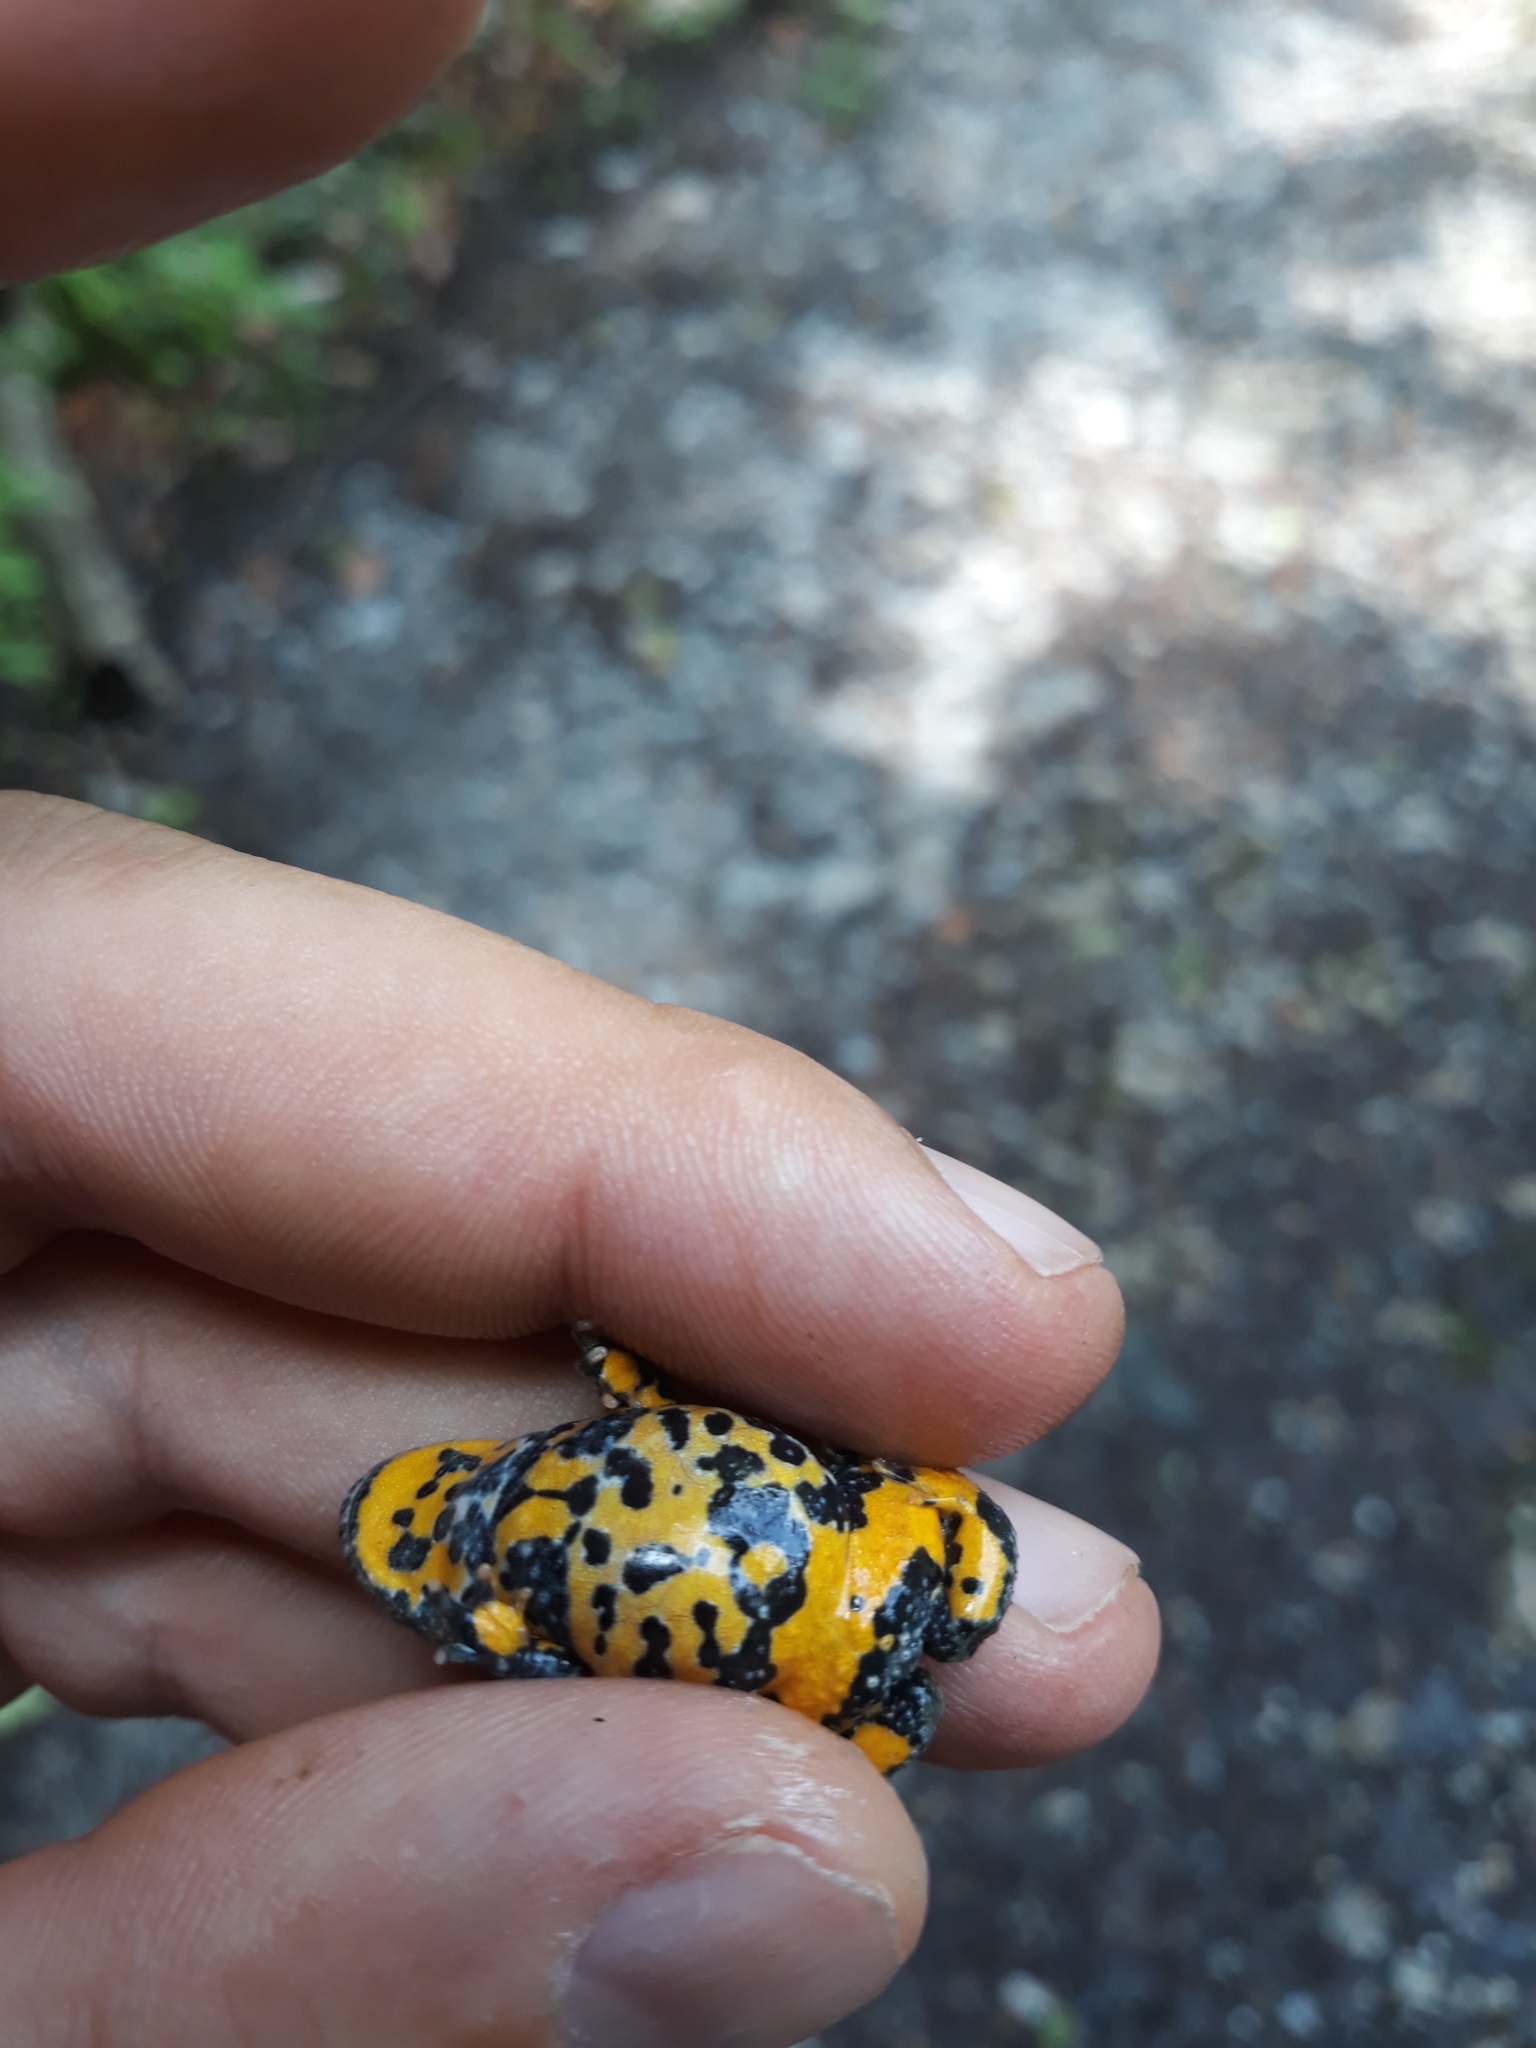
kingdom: Animalia
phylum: Chordata
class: Amphibia
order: Anura
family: Bombinatoridae
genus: Bombina
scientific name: Bombina variegata
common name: Yellow-bellied toad
